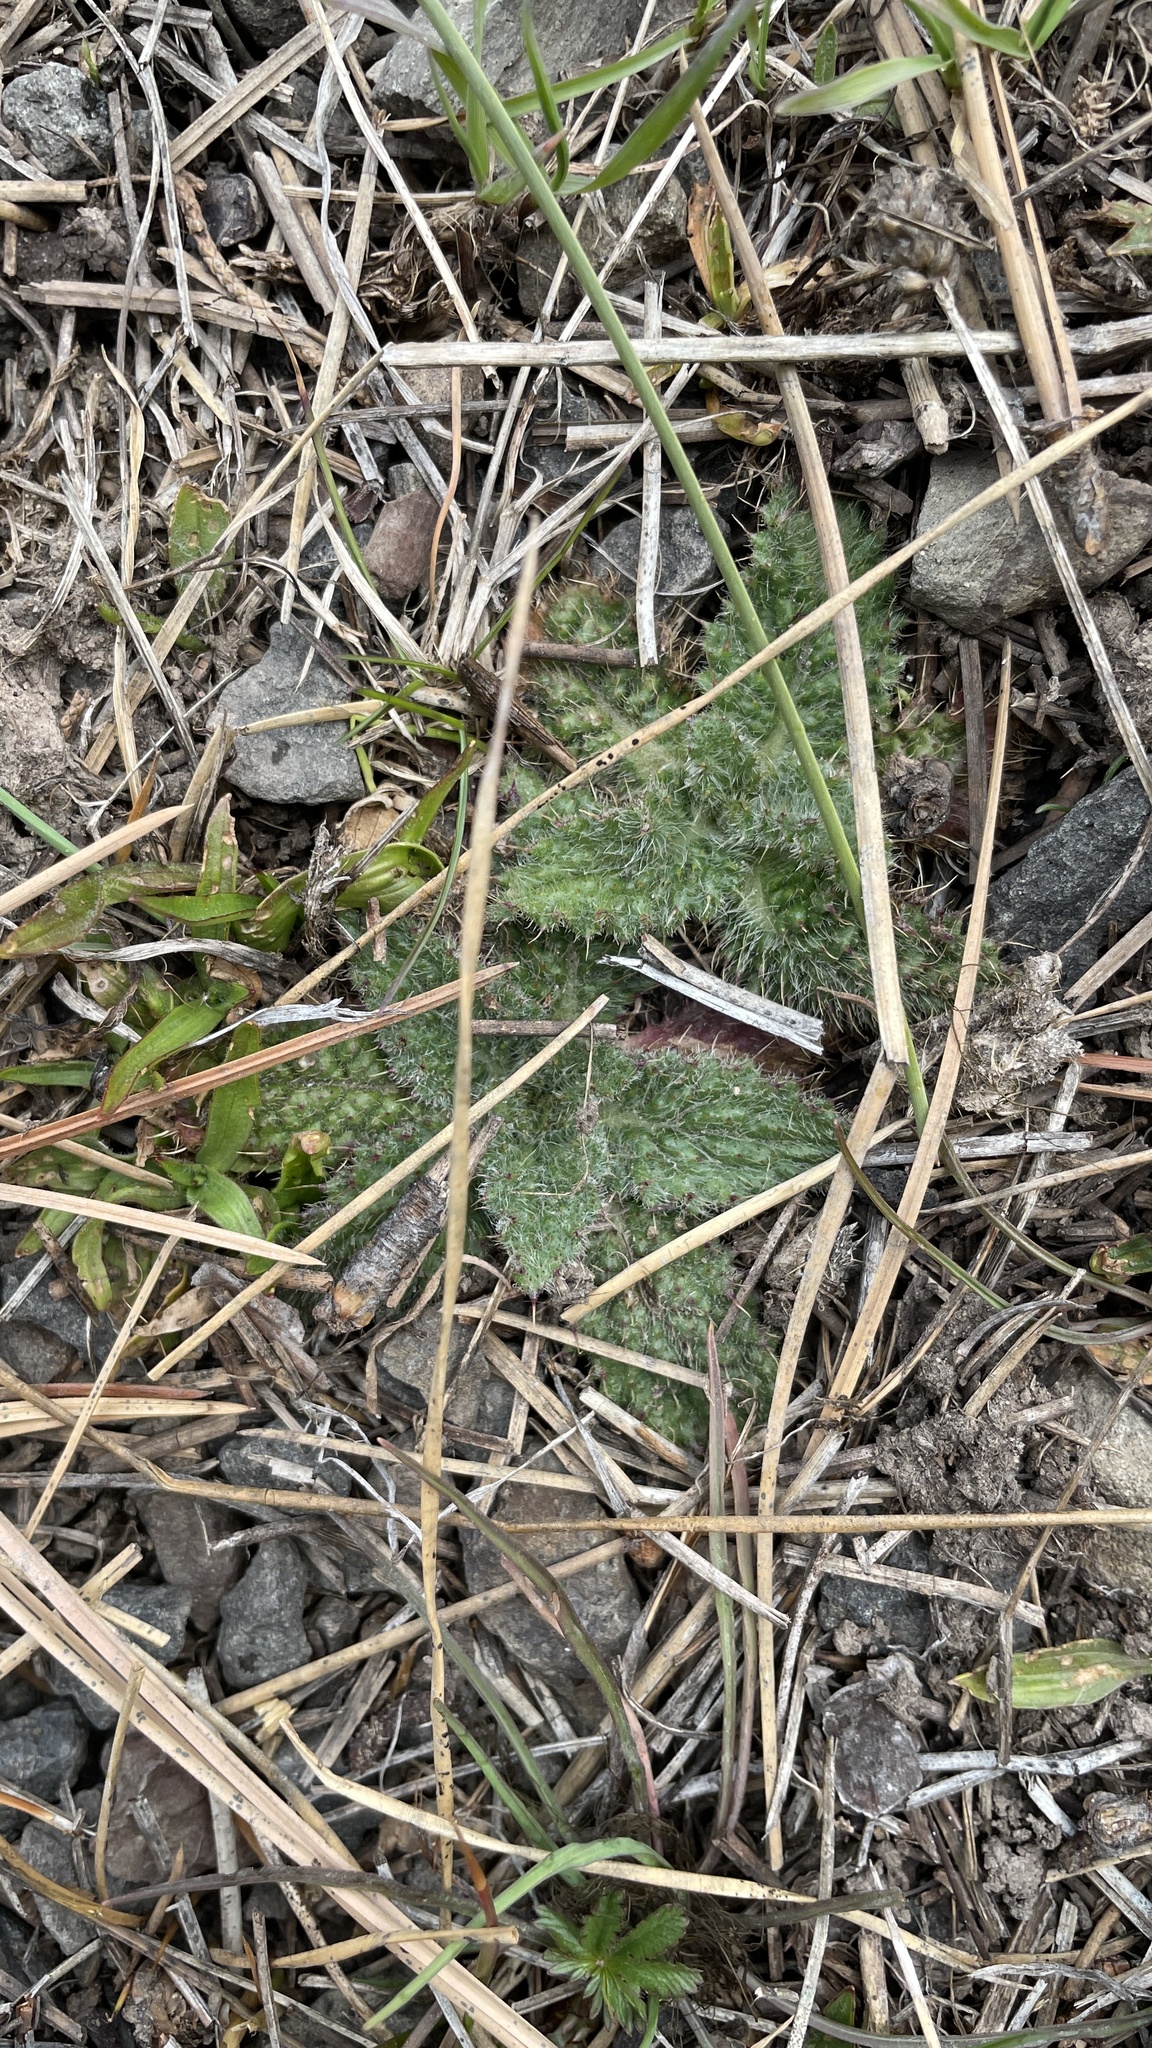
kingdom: Plantae
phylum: Tracheophyta
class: Magnoliopsida
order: Asterales
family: Asteraceae
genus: Cirsium
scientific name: Cirsium vulgare
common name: Bull thistle
